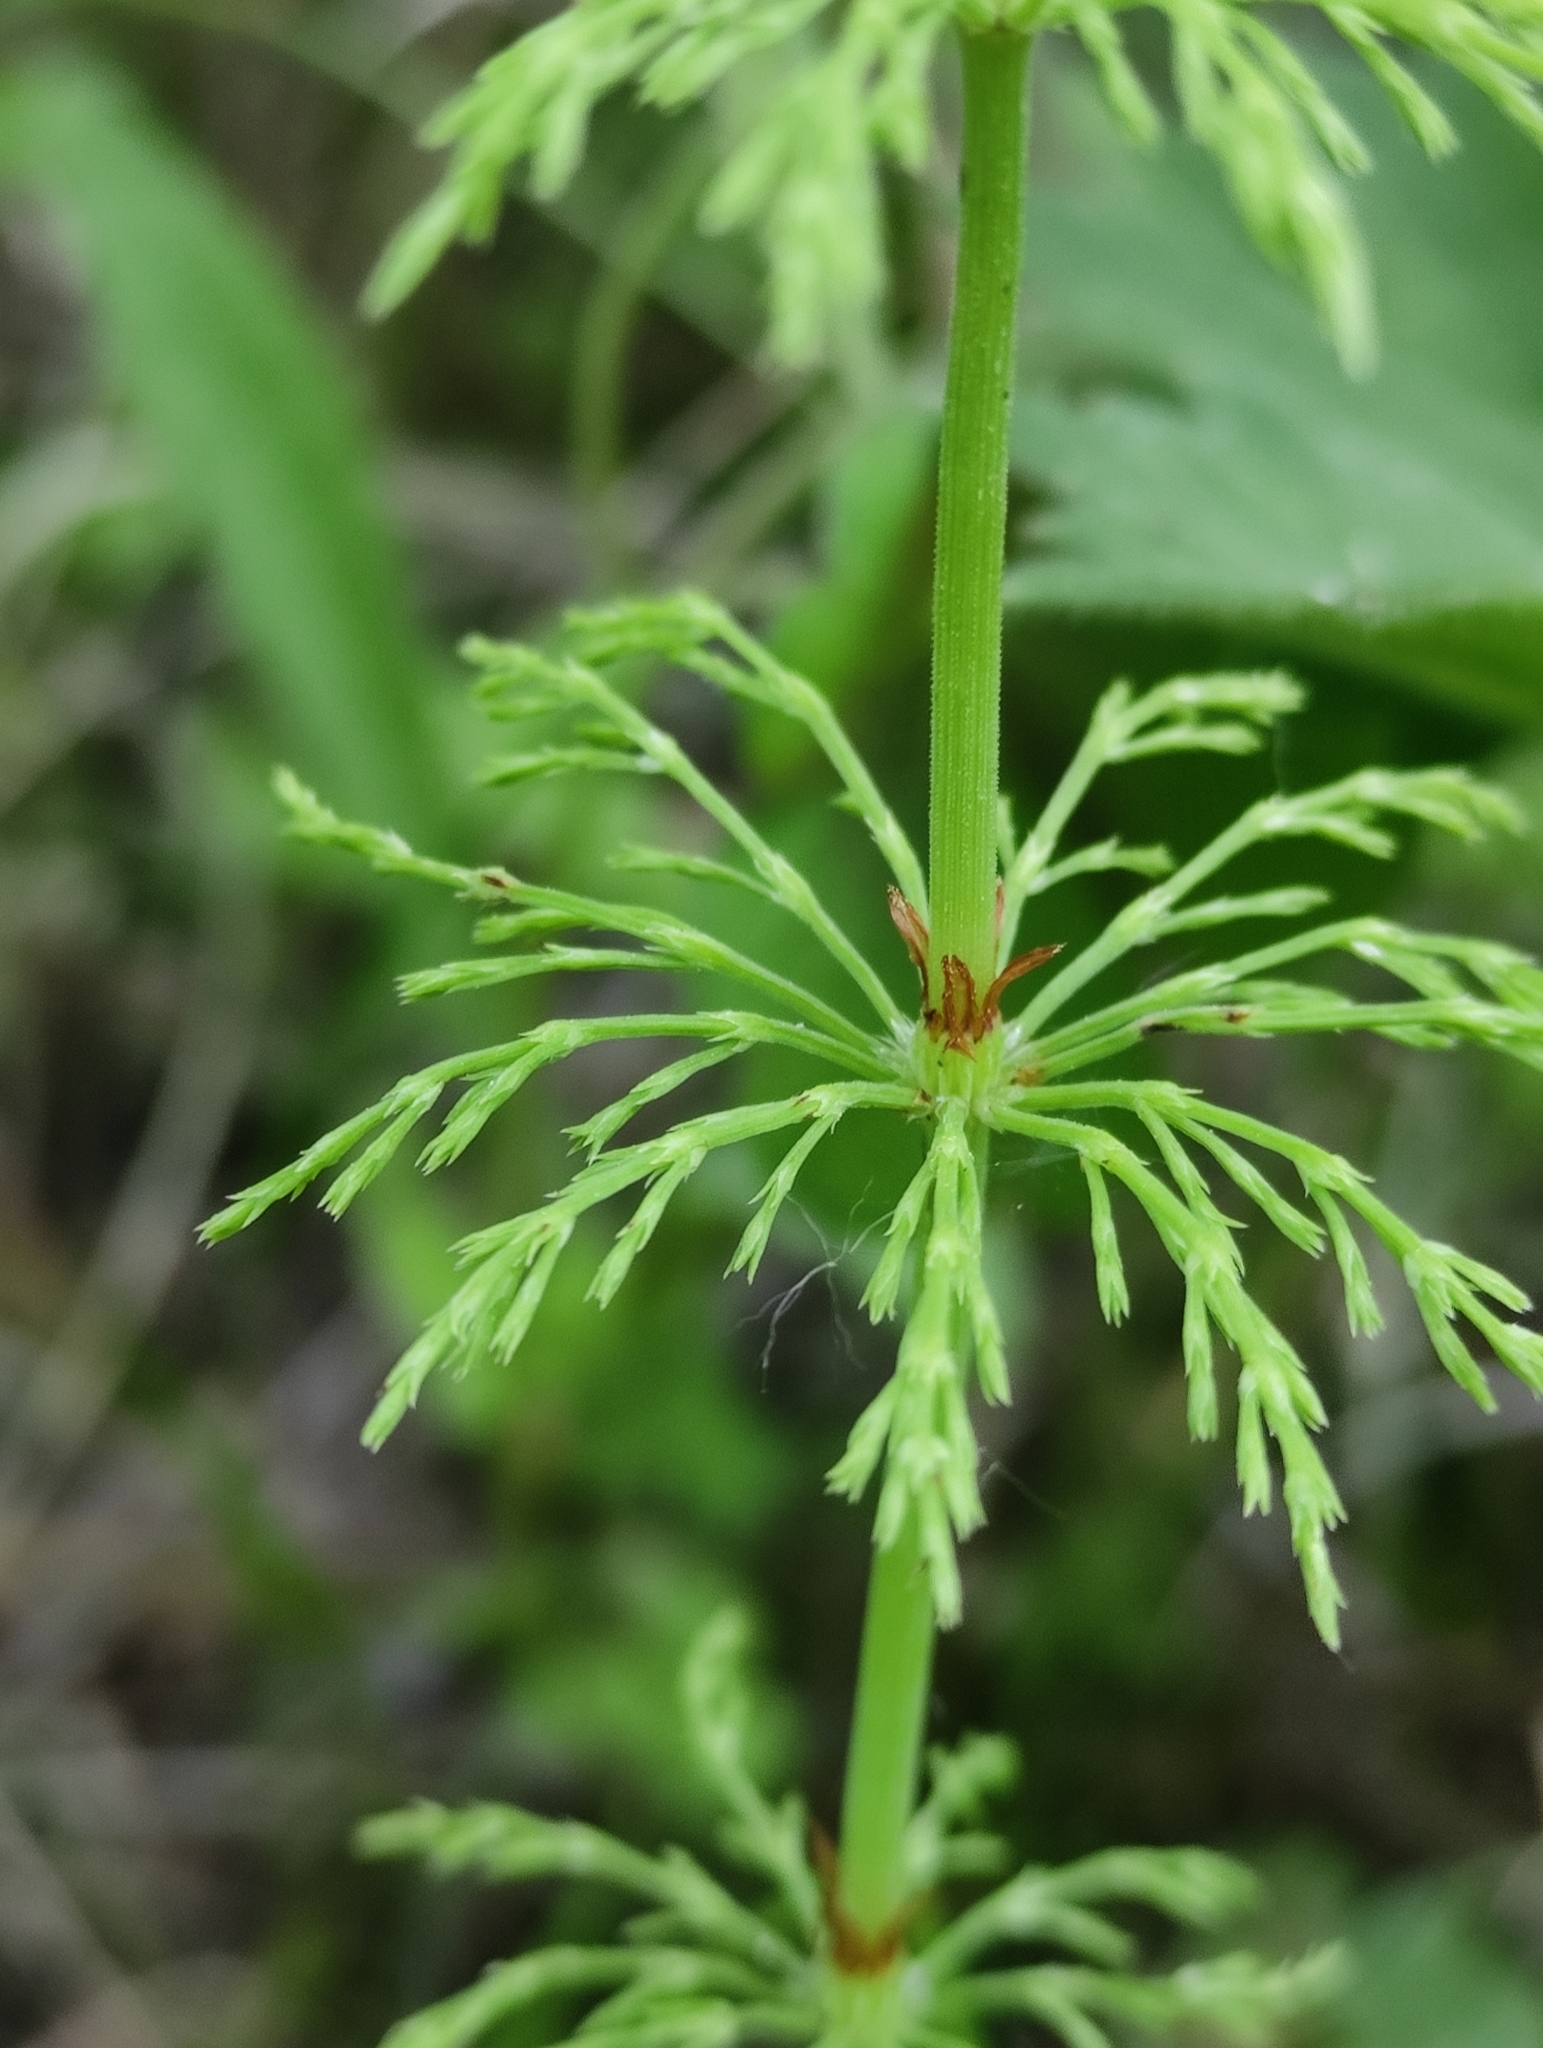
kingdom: Plantae
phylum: Tracheophyta
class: Polypodiopsida
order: Equisetales
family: Equisetaceae
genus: Equisetum
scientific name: Equisetum sylvaticum
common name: Wood horsetail
